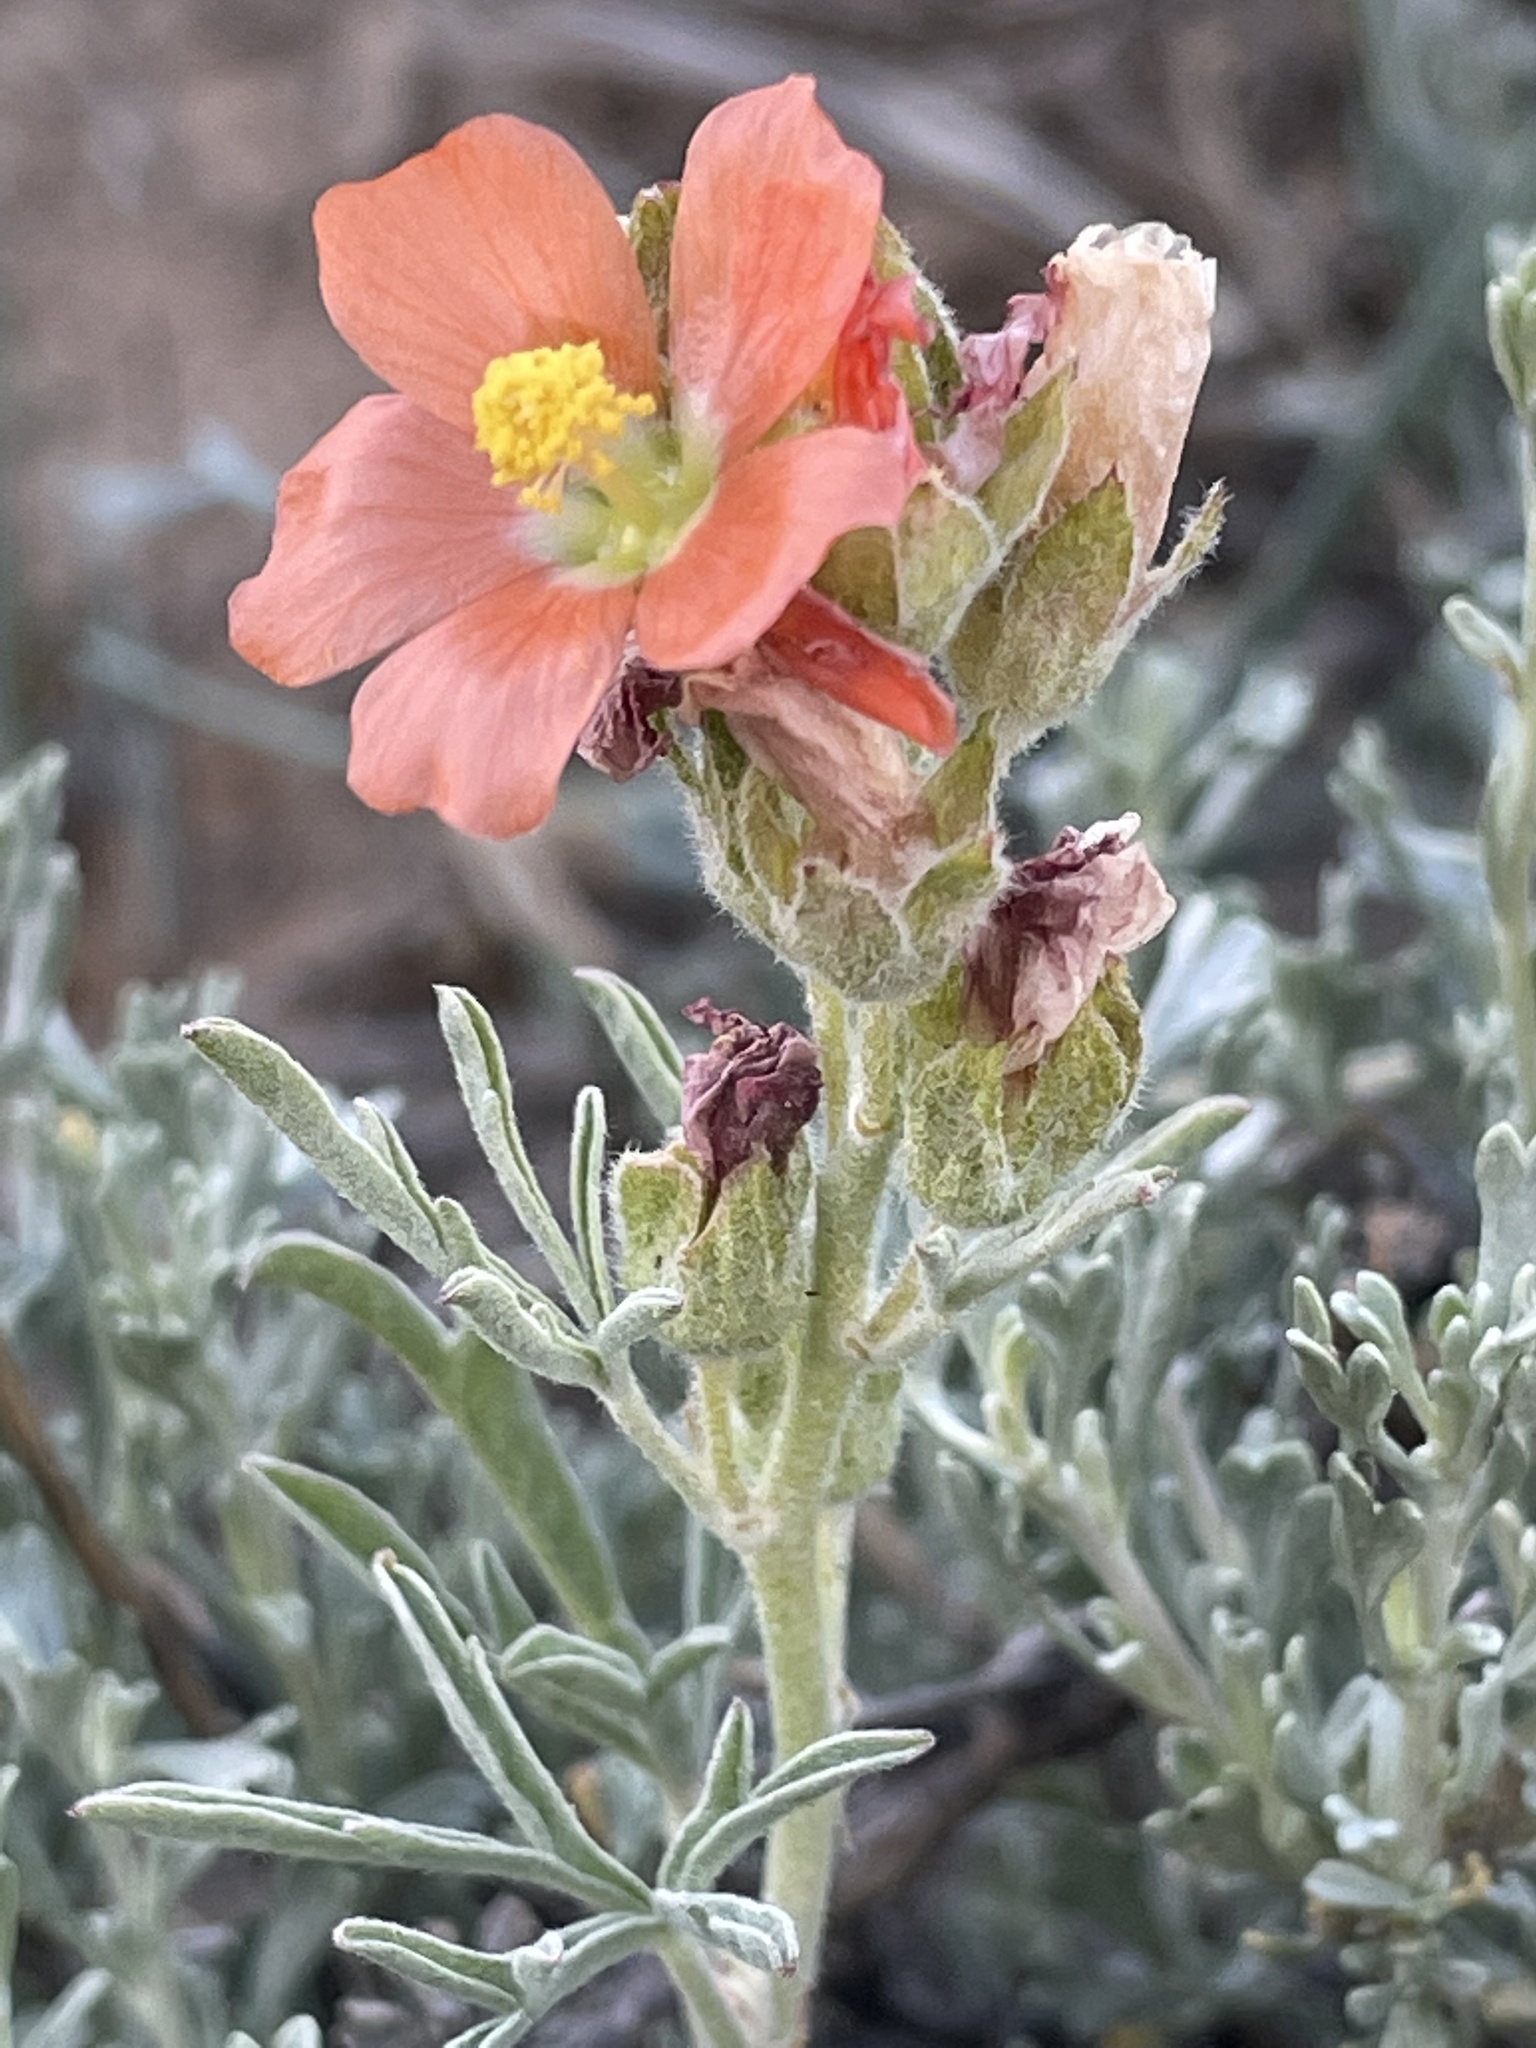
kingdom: Plantae
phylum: Tracheophyta
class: Magnoliopsida
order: Malvales
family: Malvaceae
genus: Sphaeralcea
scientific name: Sphaeralcea coccinea
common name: Moss-rose
